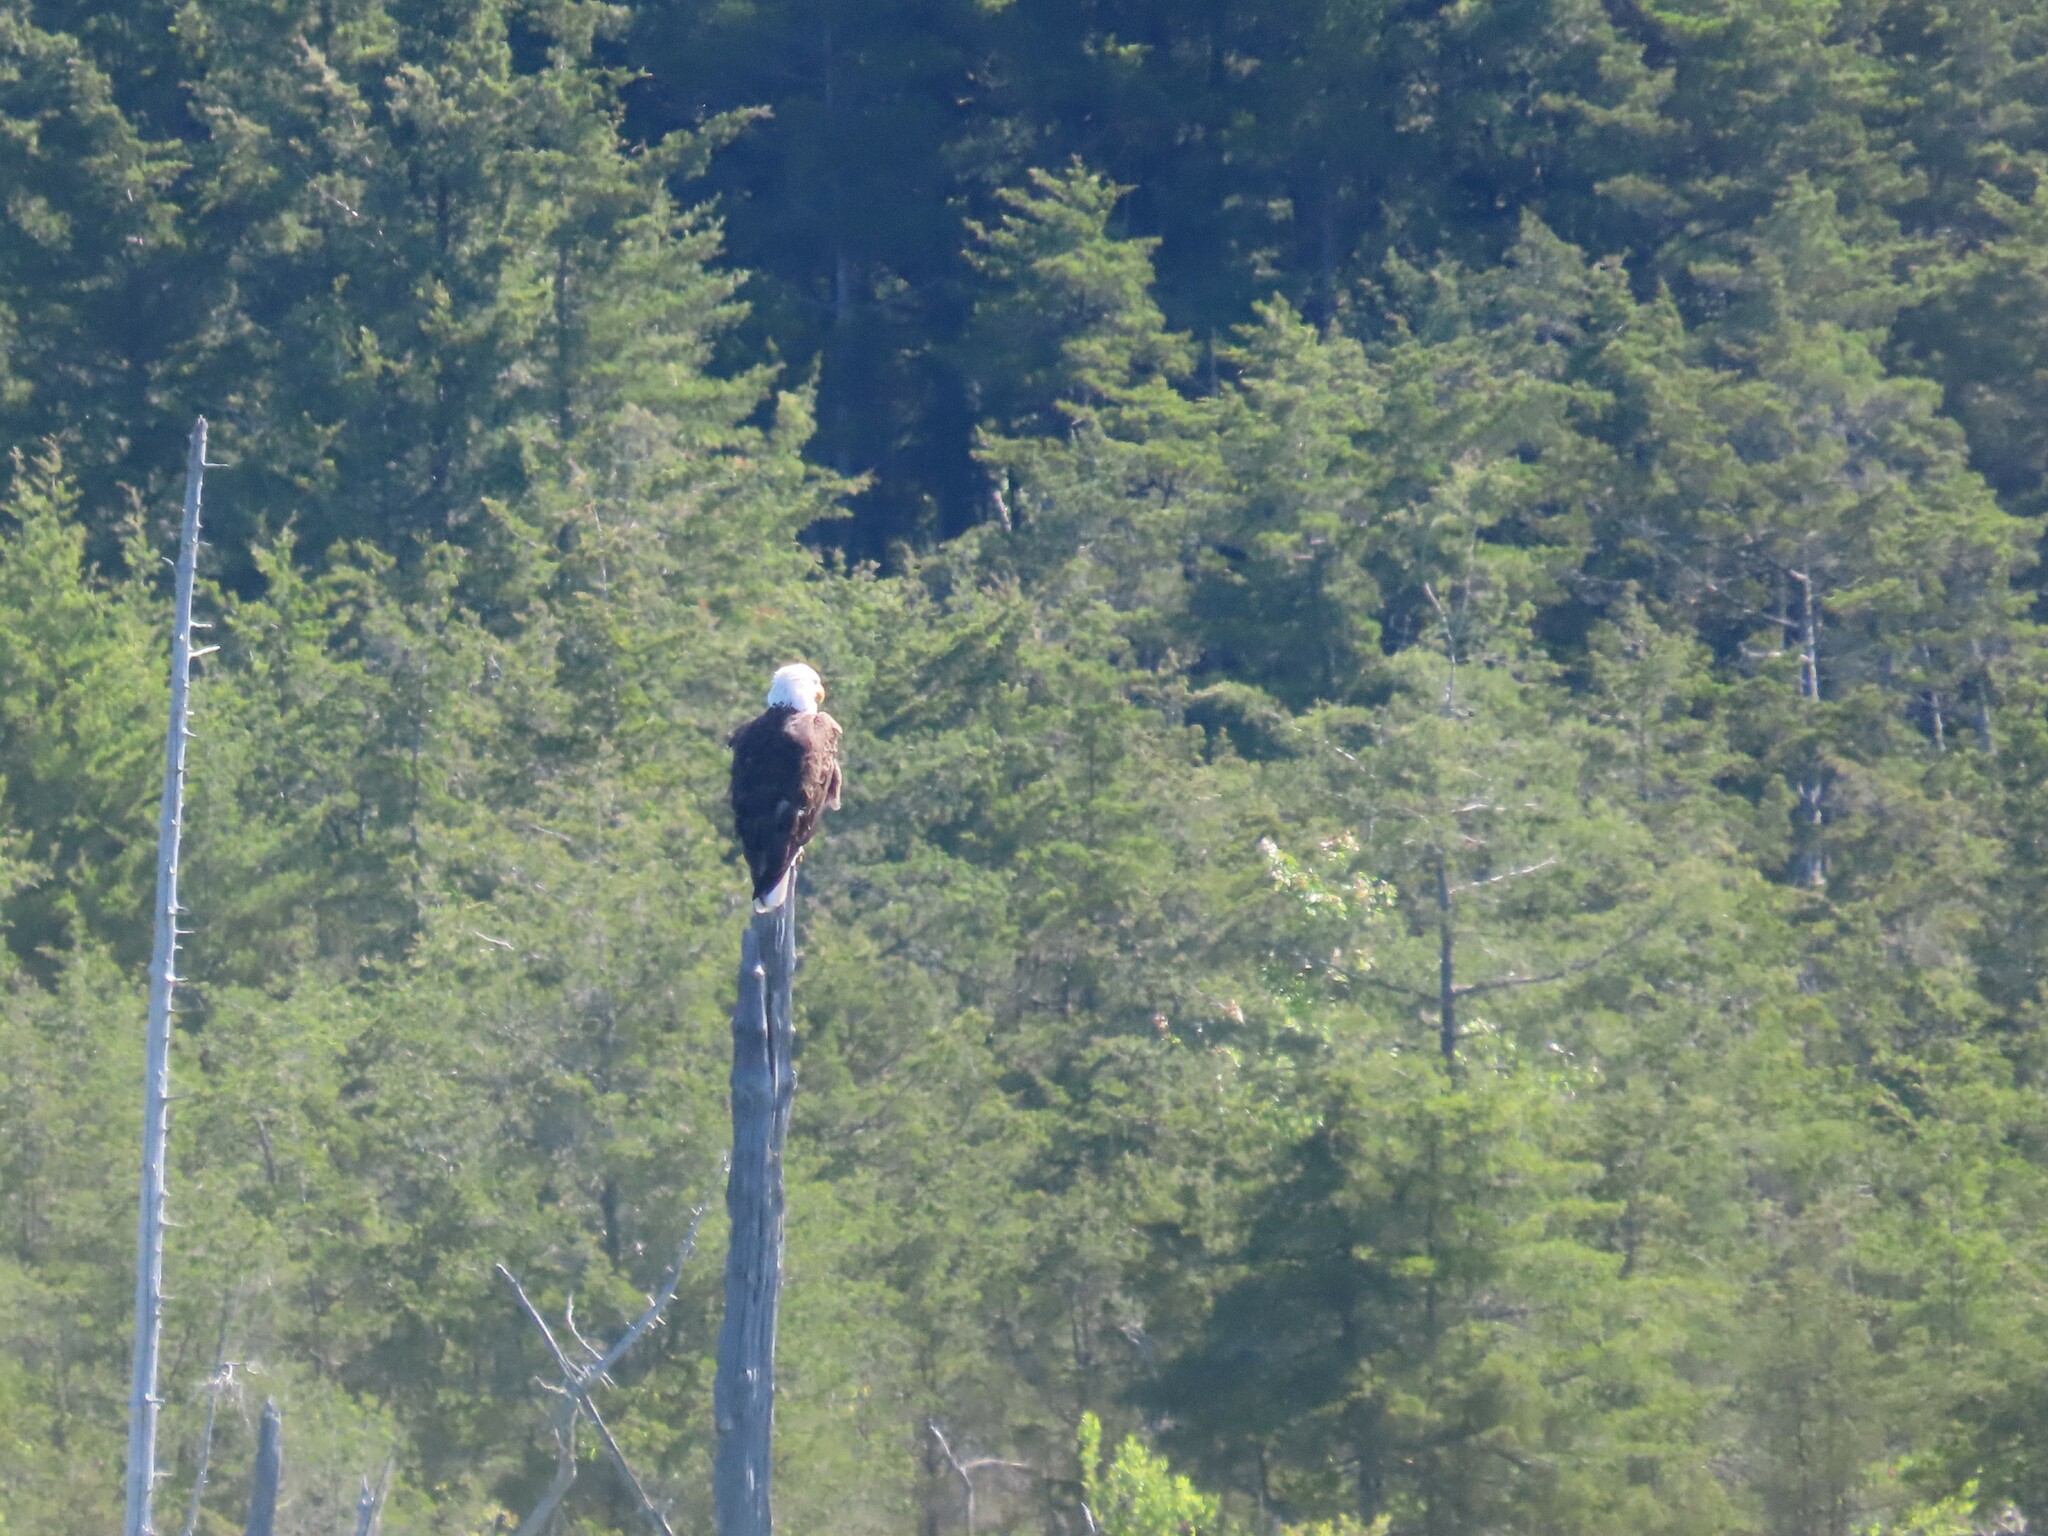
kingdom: Animalia
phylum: Chordata
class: Aves
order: Accipitriformes
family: Accipitridae
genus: Haliaeetus
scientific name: Haliaeetus leucocephalus
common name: Bald eagle
